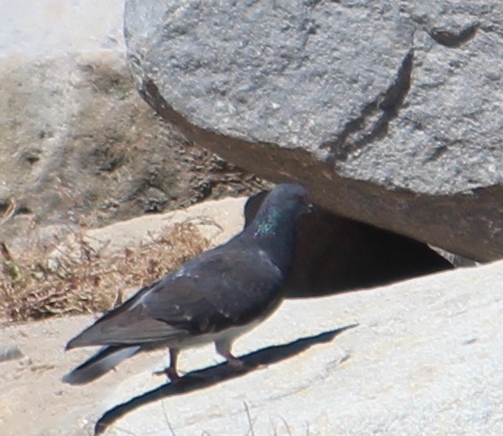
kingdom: Animalia
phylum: Chordata
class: Aves
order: Columbiformes
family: Columbidae
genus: Columba
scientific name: Columba livia
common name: Rock pigeon
